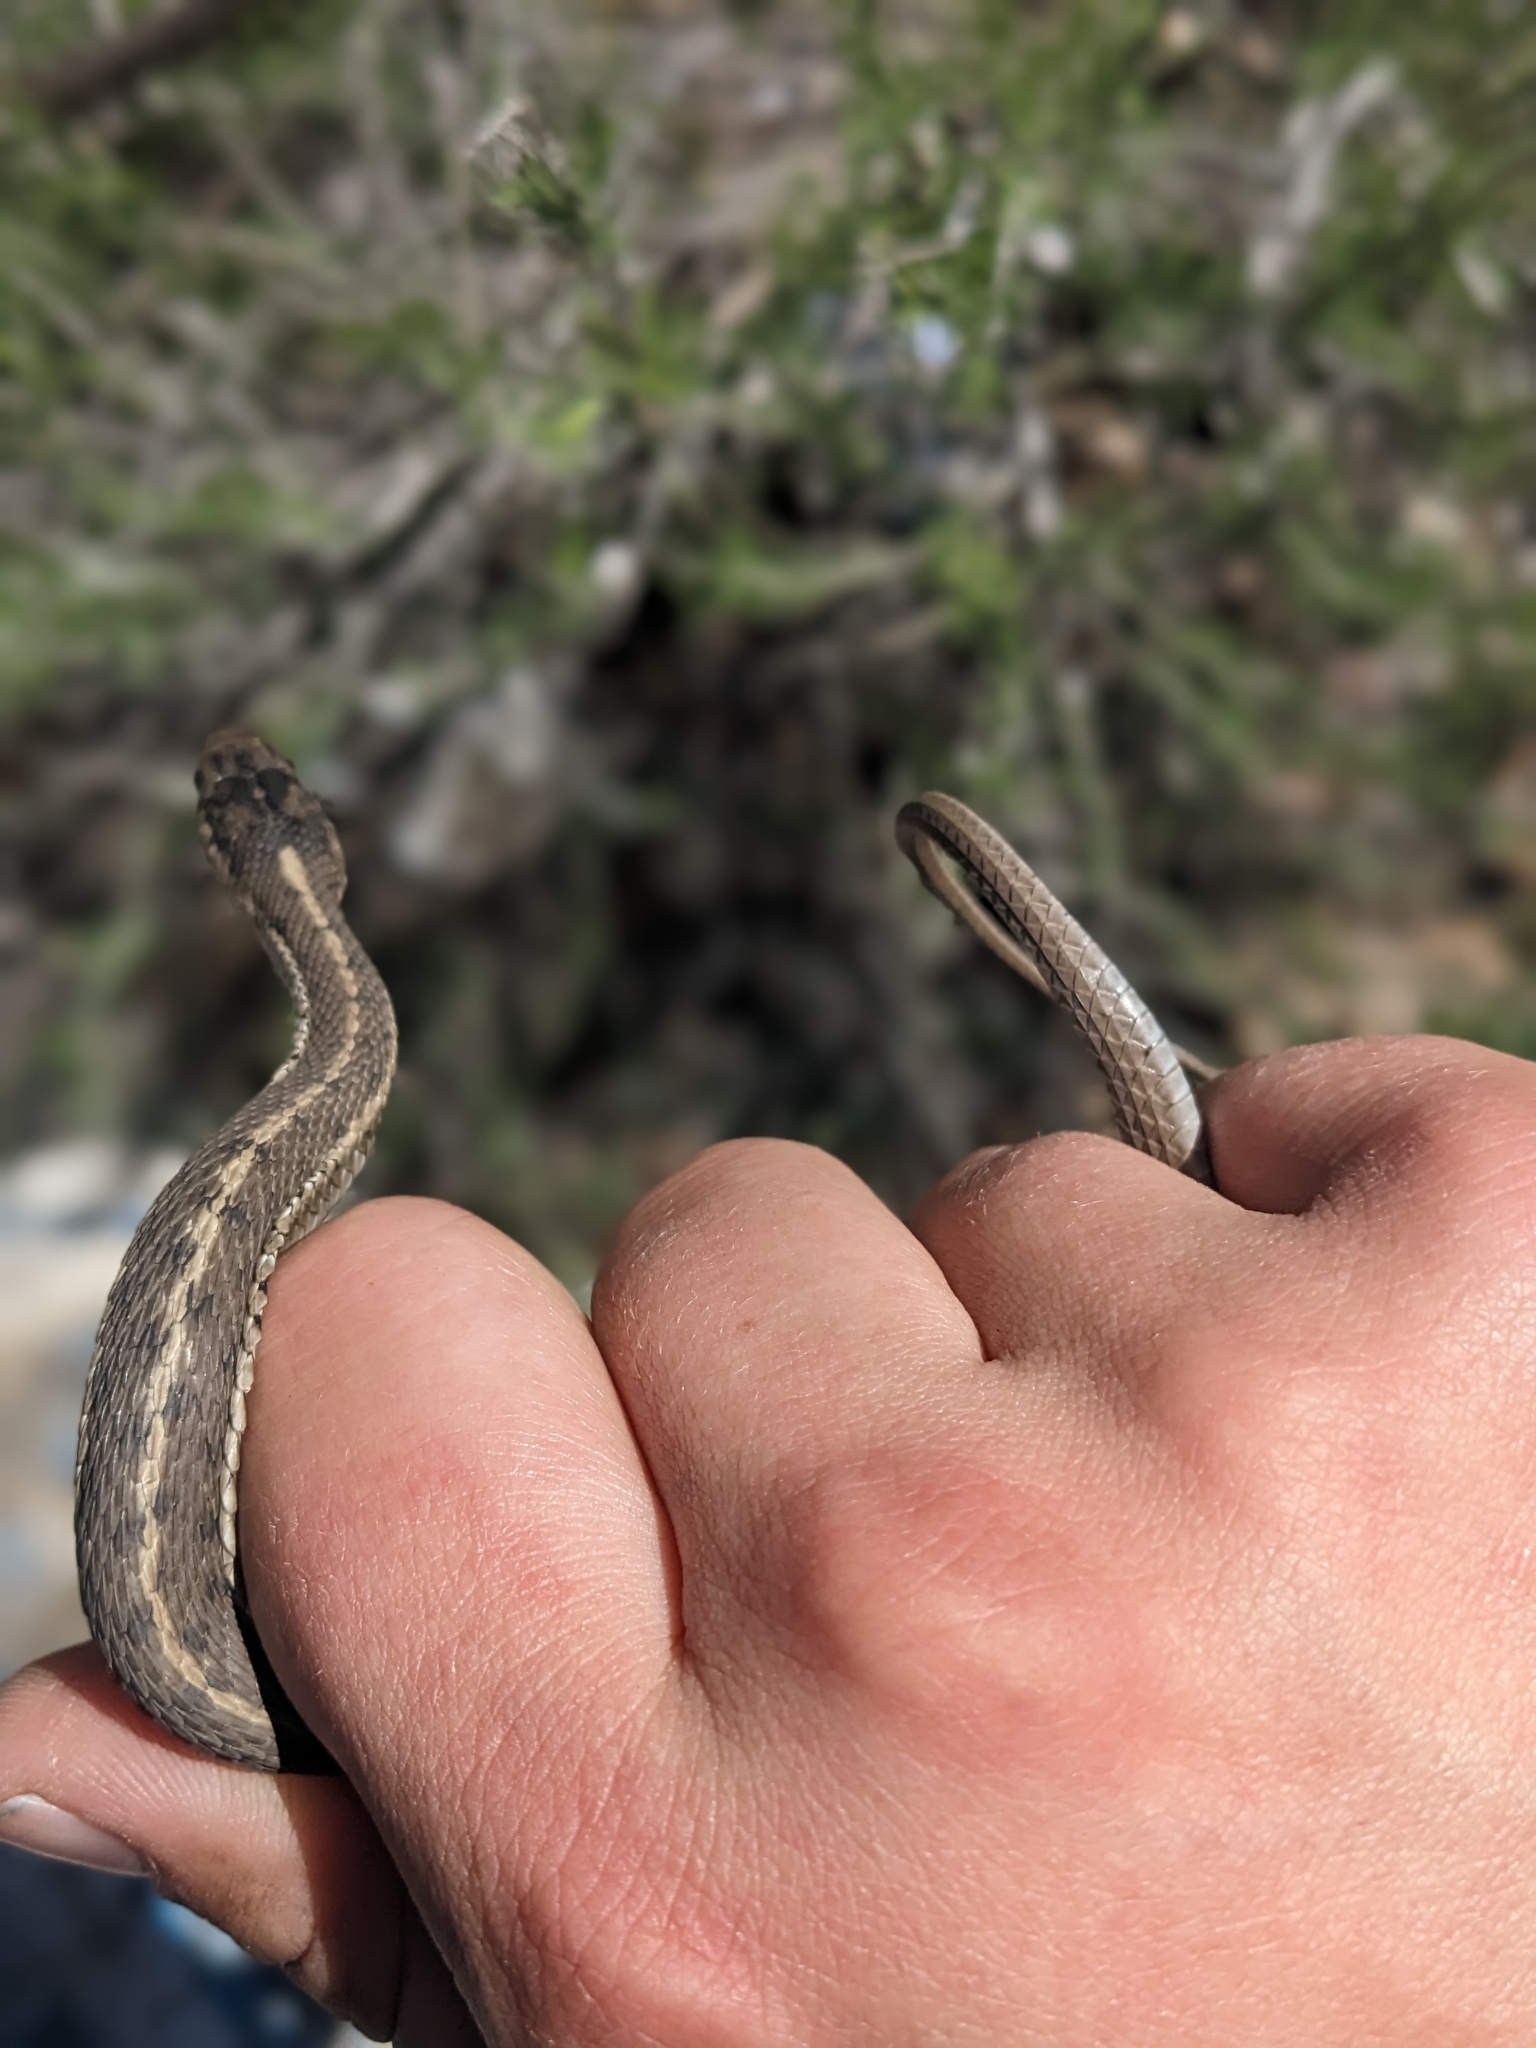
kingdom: Animalia
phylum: Chordata
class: Squamata
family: Colubridae
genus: Thamnophis
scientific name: Thamnophis elegans
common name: Western terrestrial garter snake
